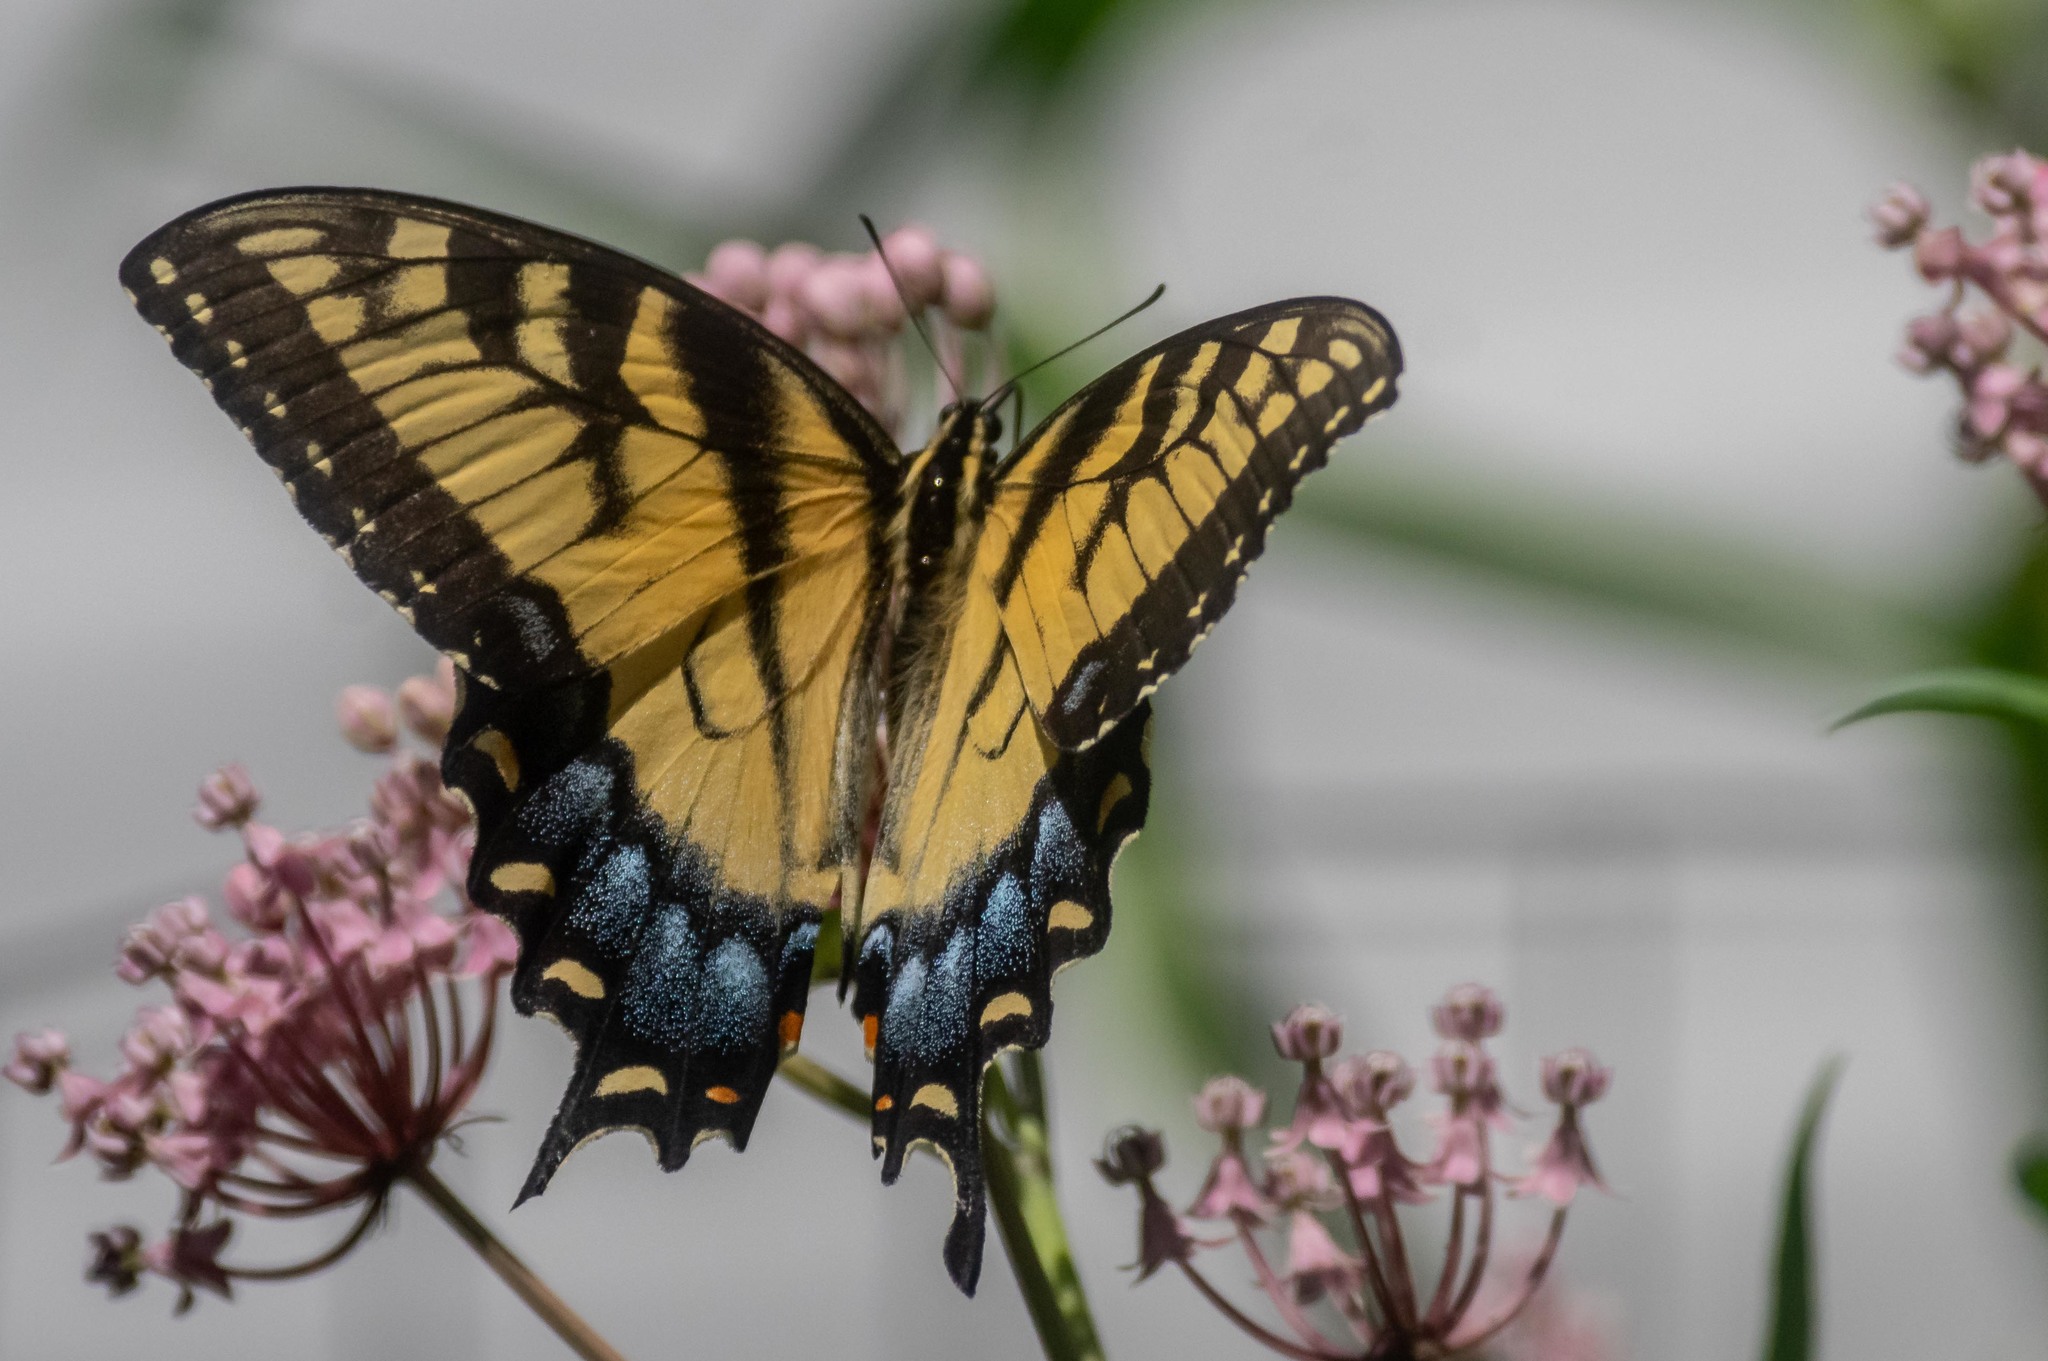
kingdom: Animalia
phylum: Arthropoda
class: Insecta
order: Lepidoptera
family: Papilionidae
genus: Papilio
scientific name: Papilio glaucus
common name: Tiger swallowtail
